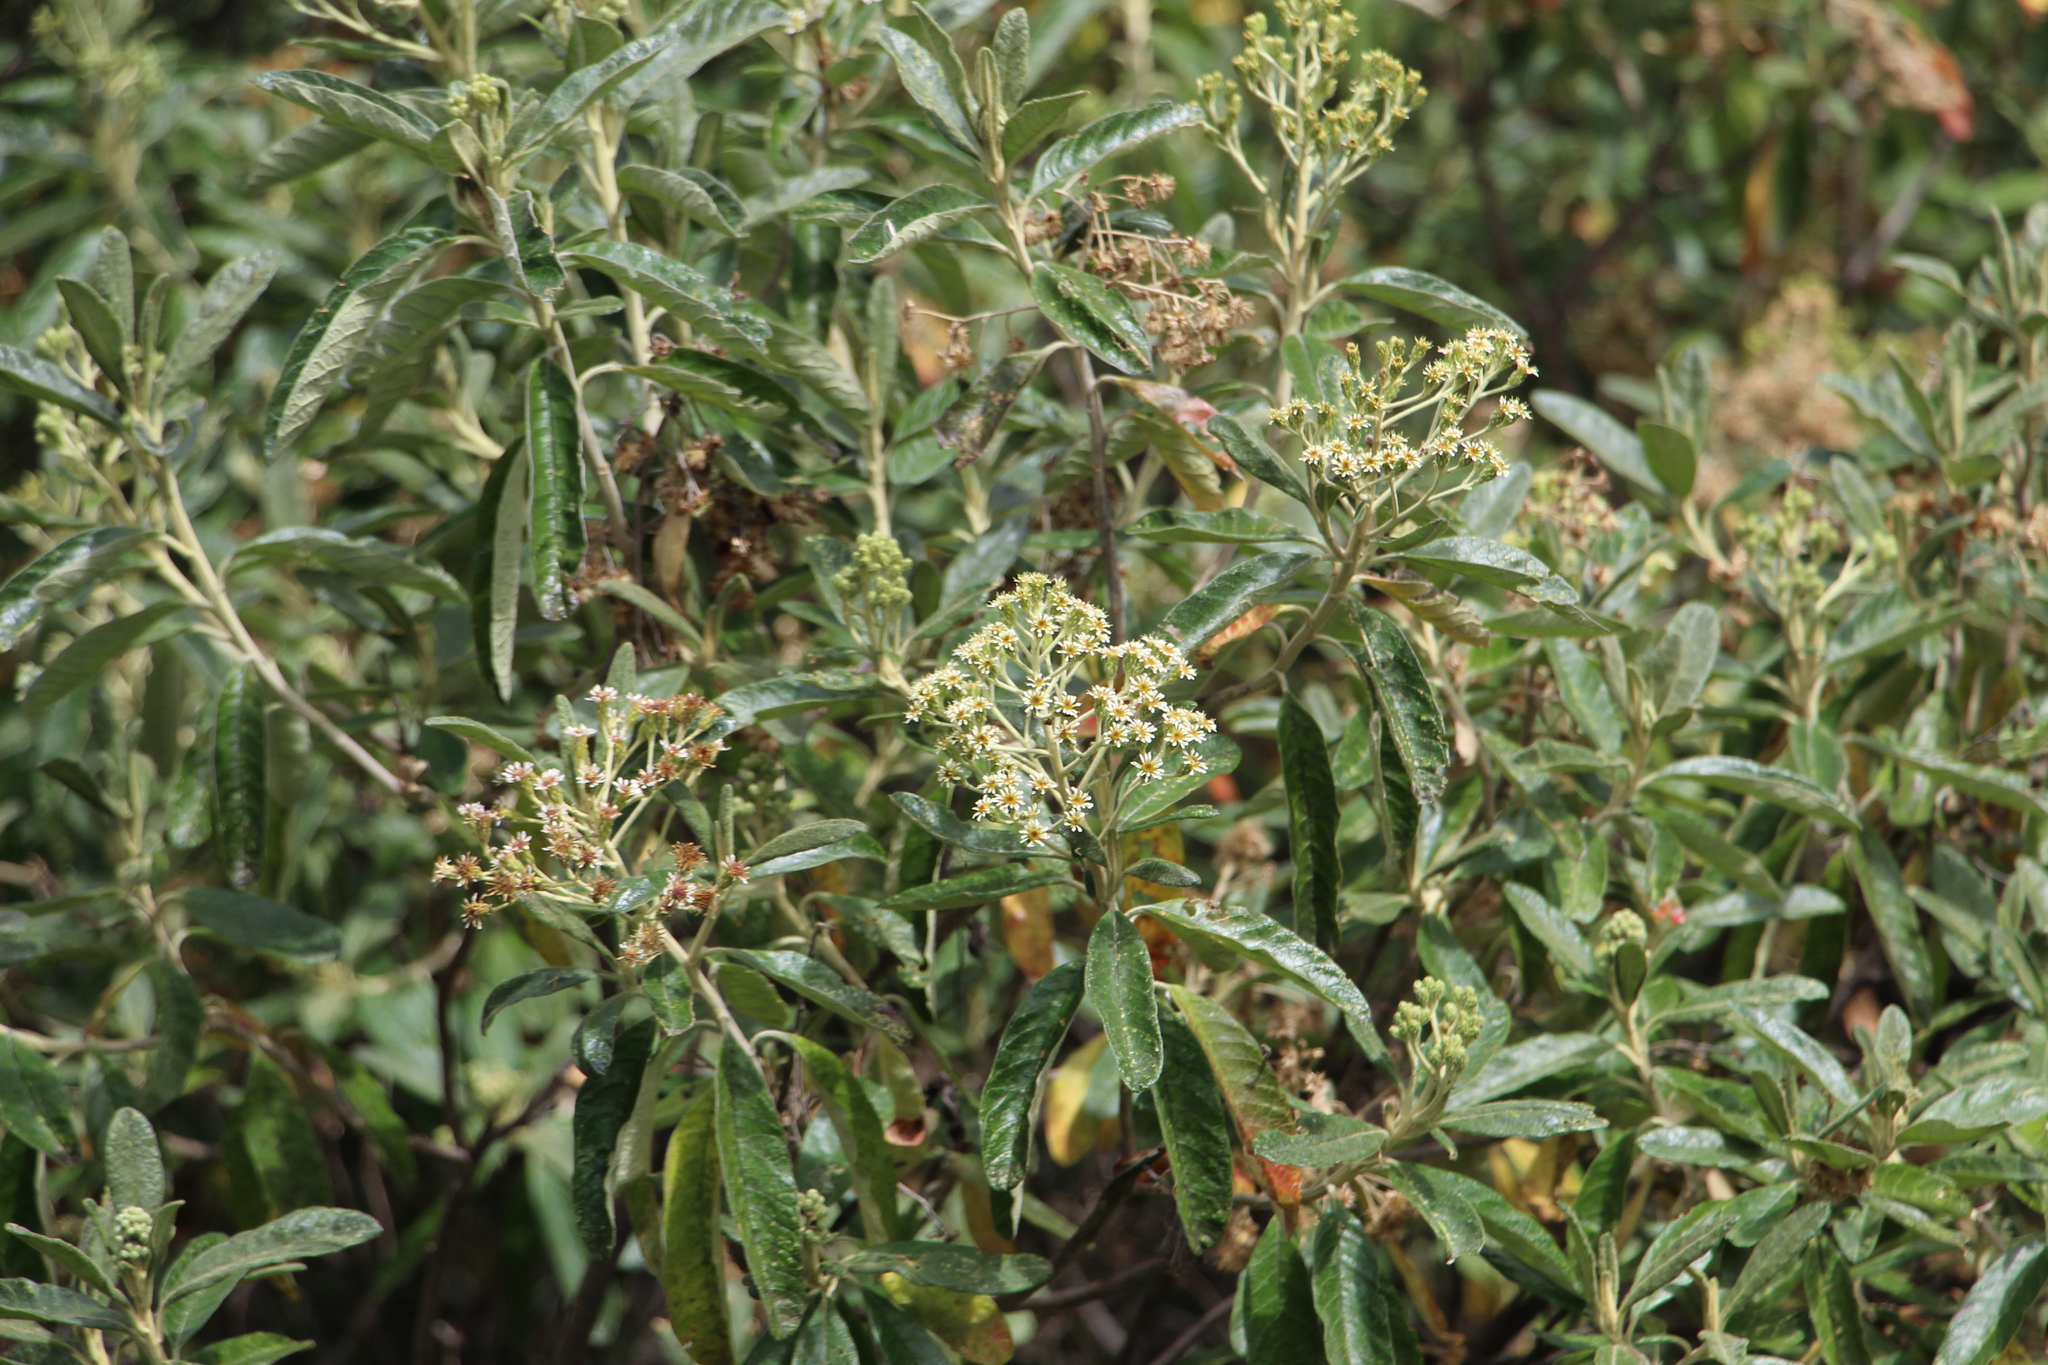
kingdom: Plantae
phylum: Tracheophyta
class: Magnoliopsida
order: Asterales
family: Asteraceae
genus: Linochilus
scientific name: Linochilus tenuifolius
